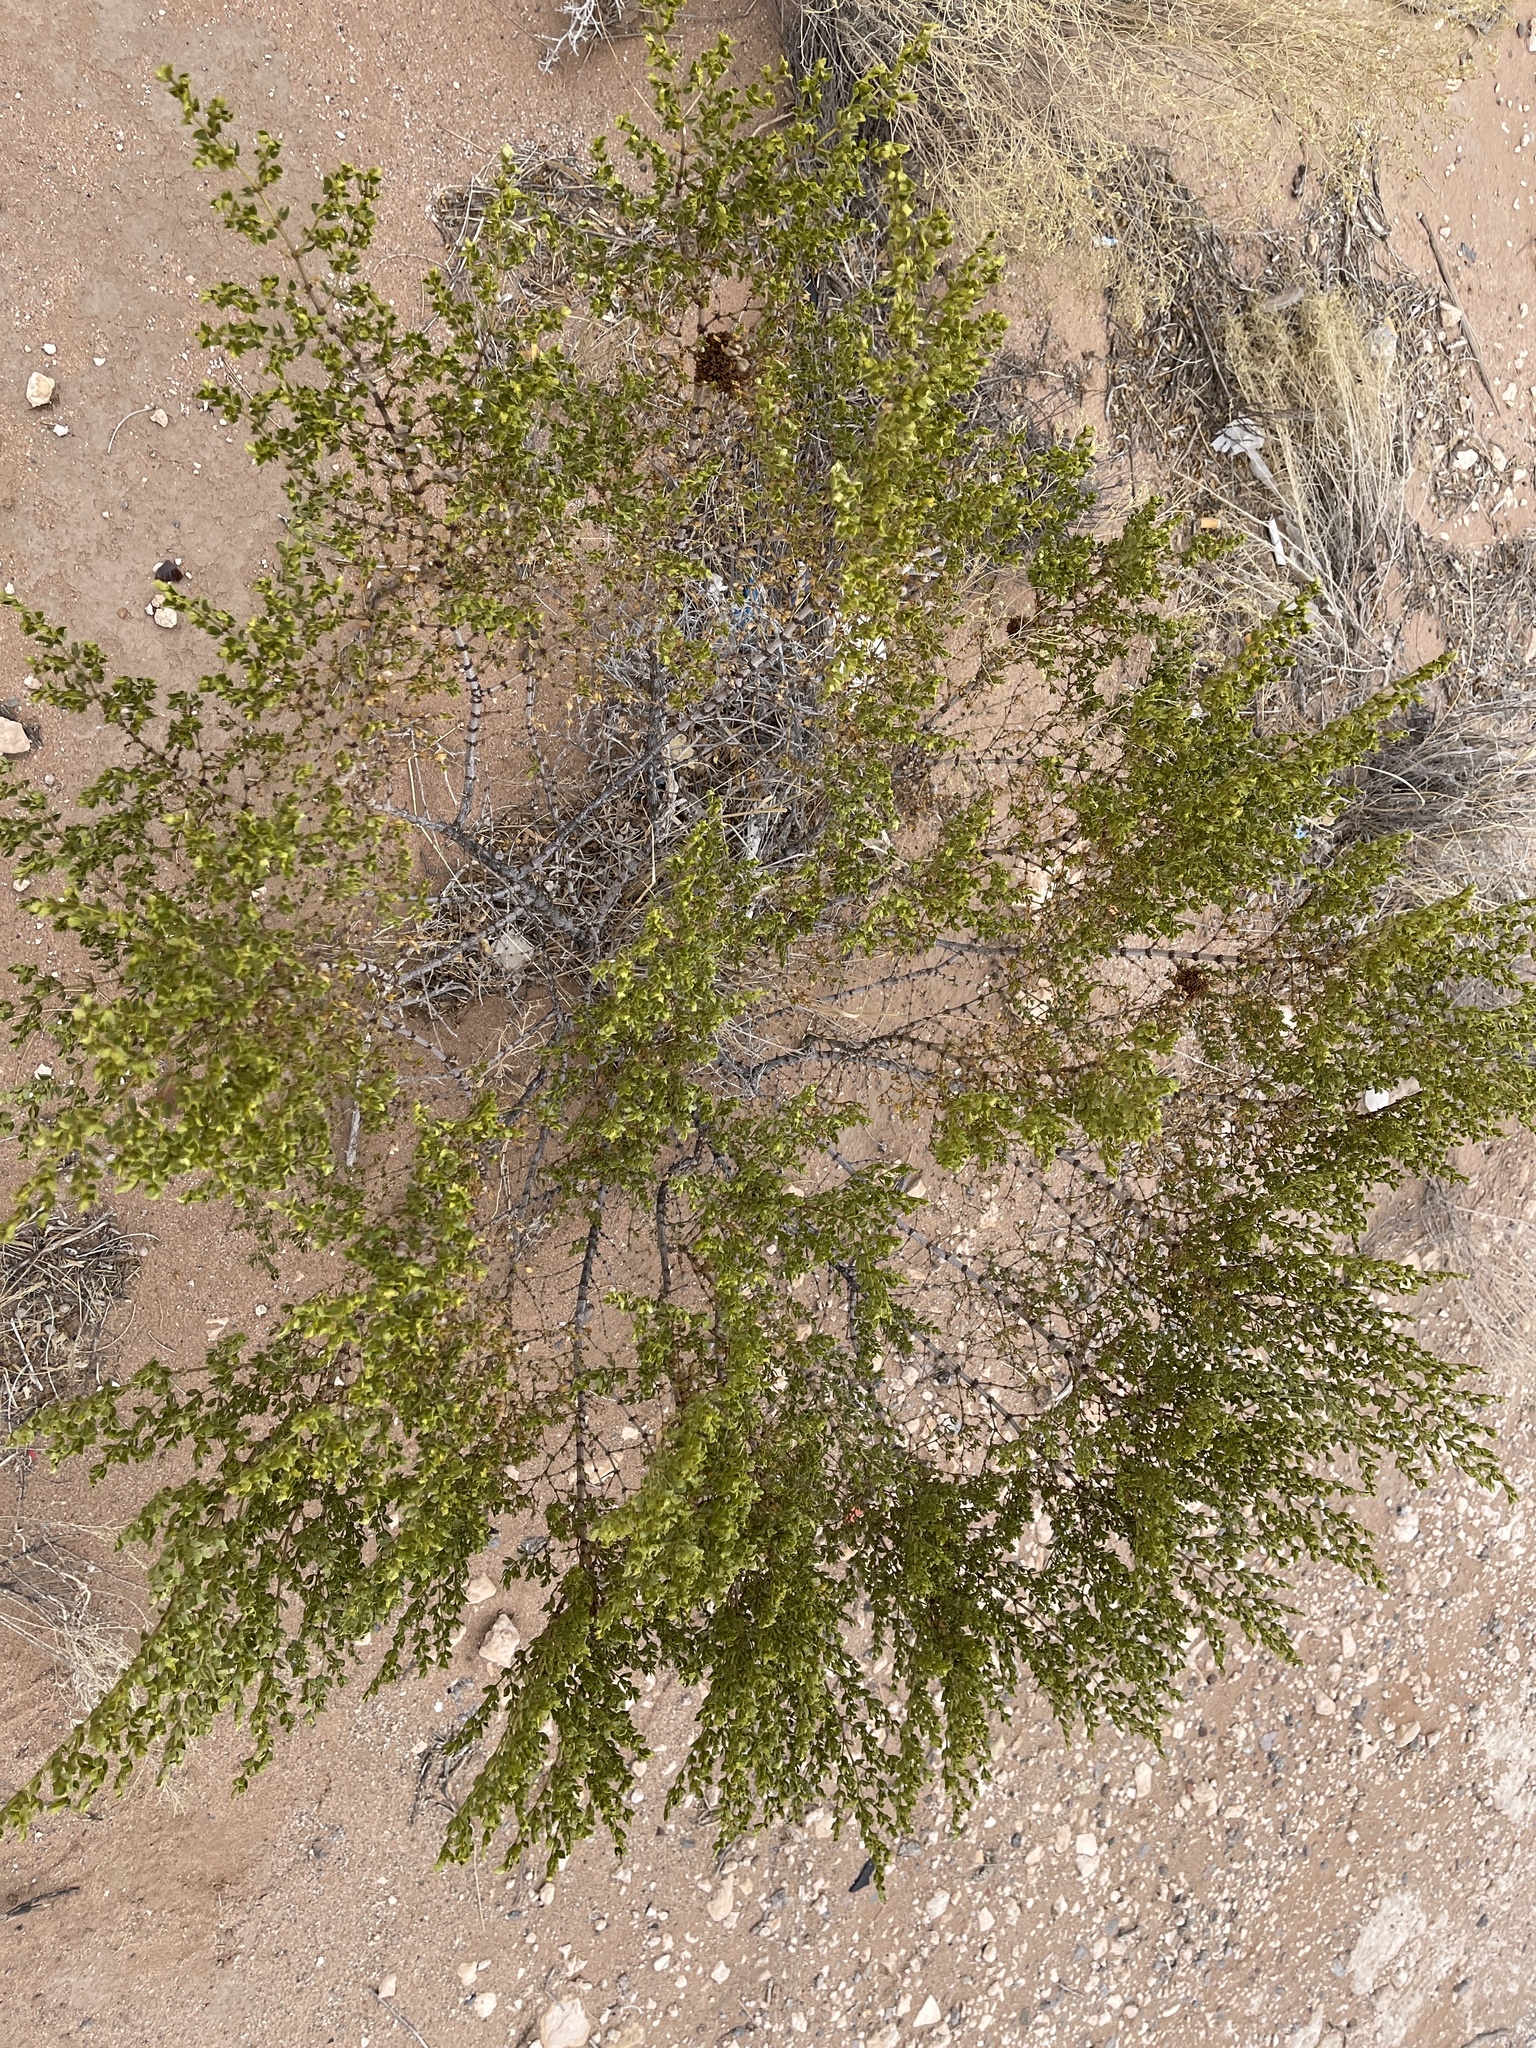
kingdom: Plantae
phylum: Tracheophyta
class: Magnoliopsida
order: Zygophyllales
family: Zygophyllaceae
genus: Larrea
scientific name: Larrea tridentata
